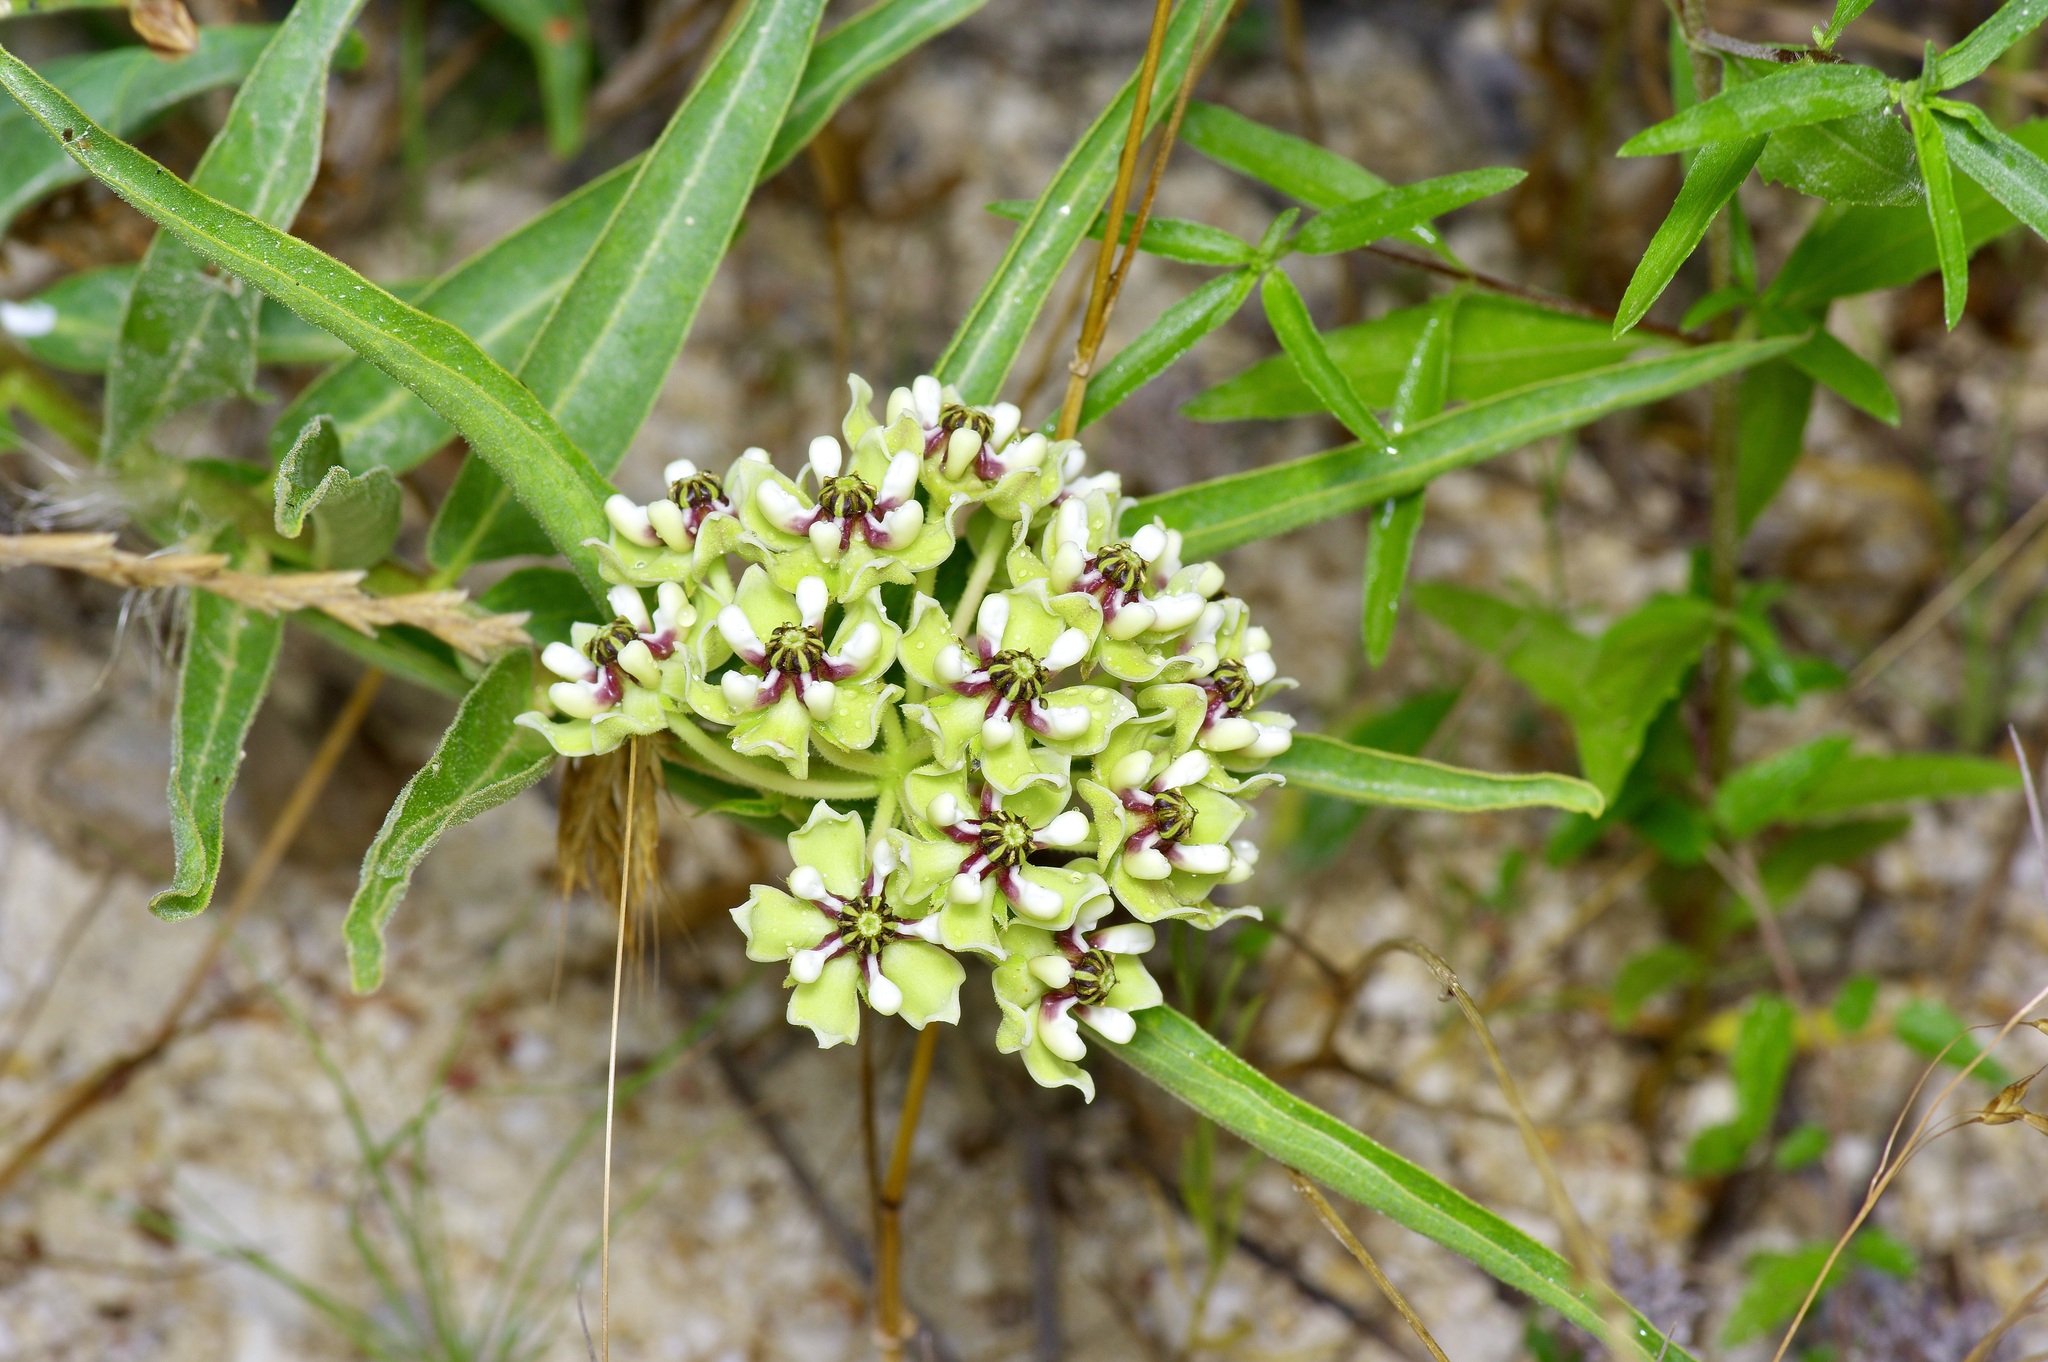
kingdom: Plantae
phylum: Tracheophyta
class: Magnoliopsida
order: Gentianales
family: Apocynaceae
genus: Asclepias
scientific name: Asclepias asperula
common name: Antelope horns
